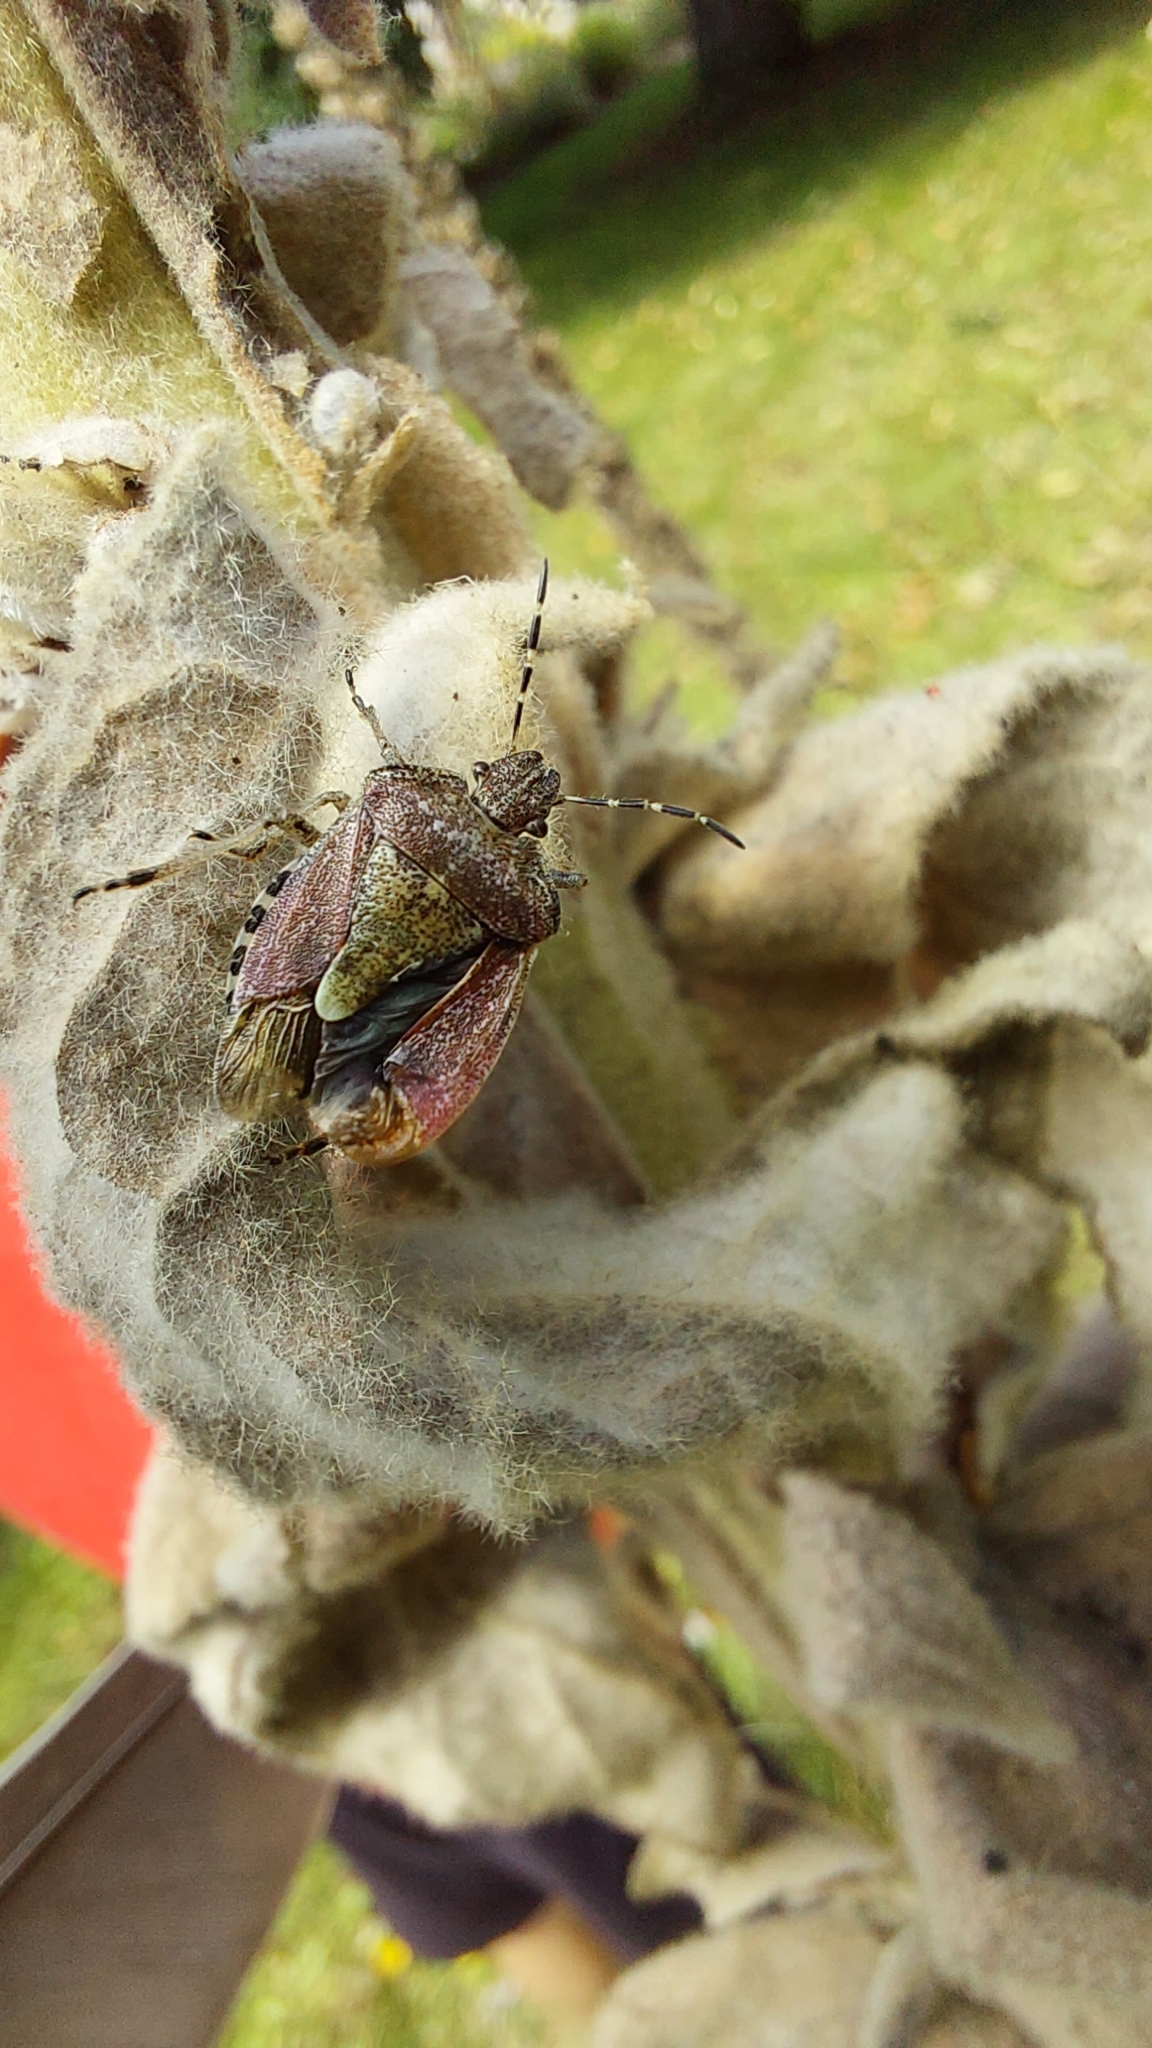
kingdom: Animalia
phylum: Arthropoda
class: Insecta
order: Hemiptera
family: Pentatomidae
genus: Dolycoris
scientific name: Dolycoris baccarum
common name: Sloe bug
